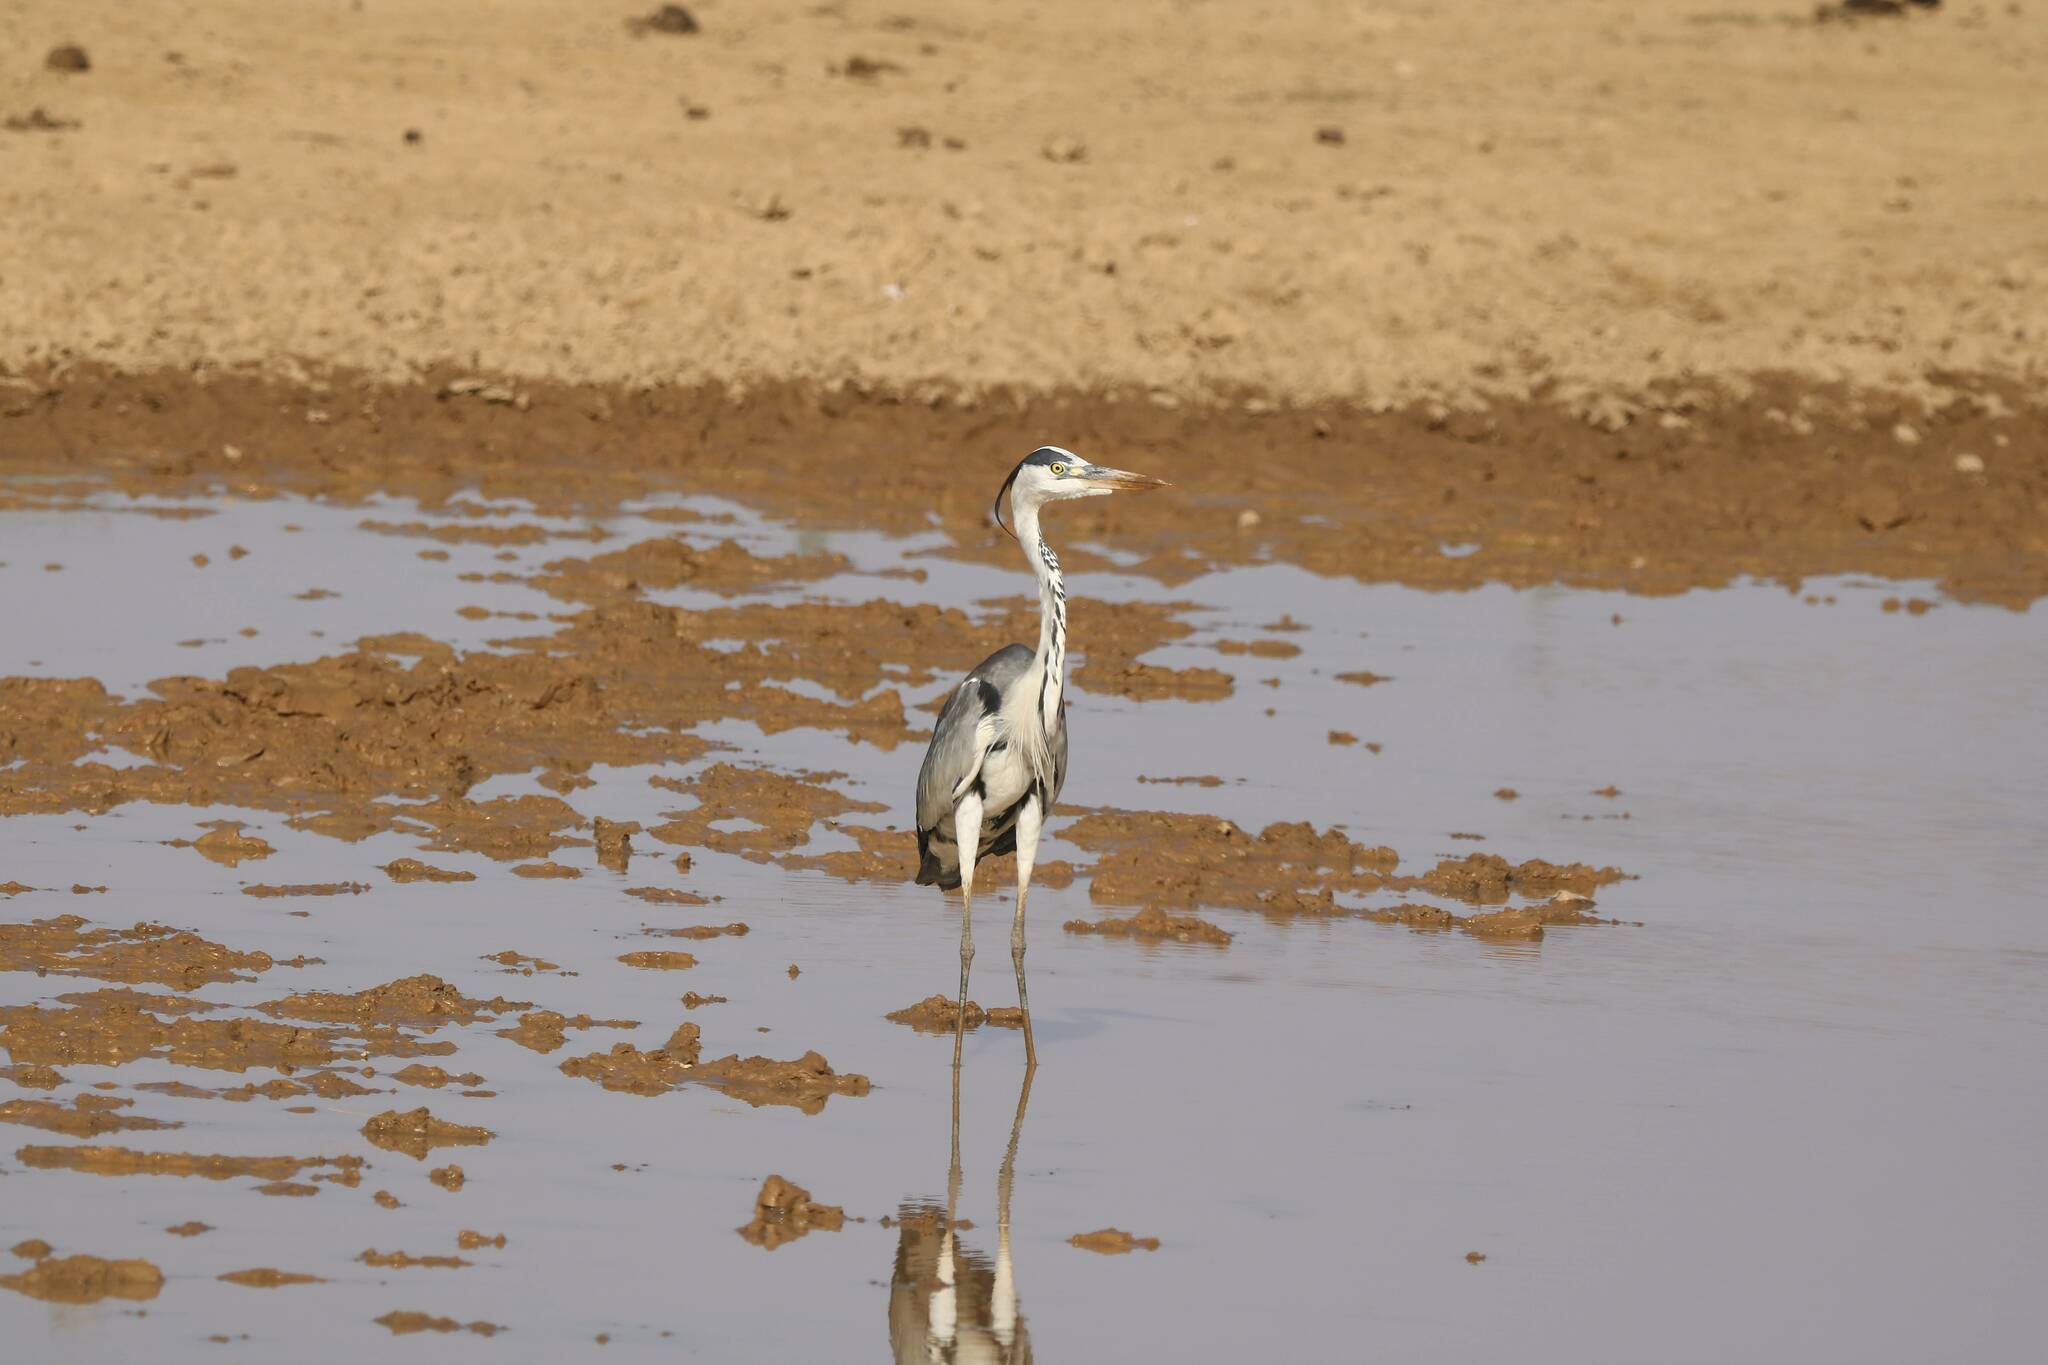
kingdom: Animalia
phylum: Chordata
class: Aves
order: Pelecaniformes
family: Ardeidae
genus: Ardea
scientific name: Ardea cinerea
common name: Grey heron
